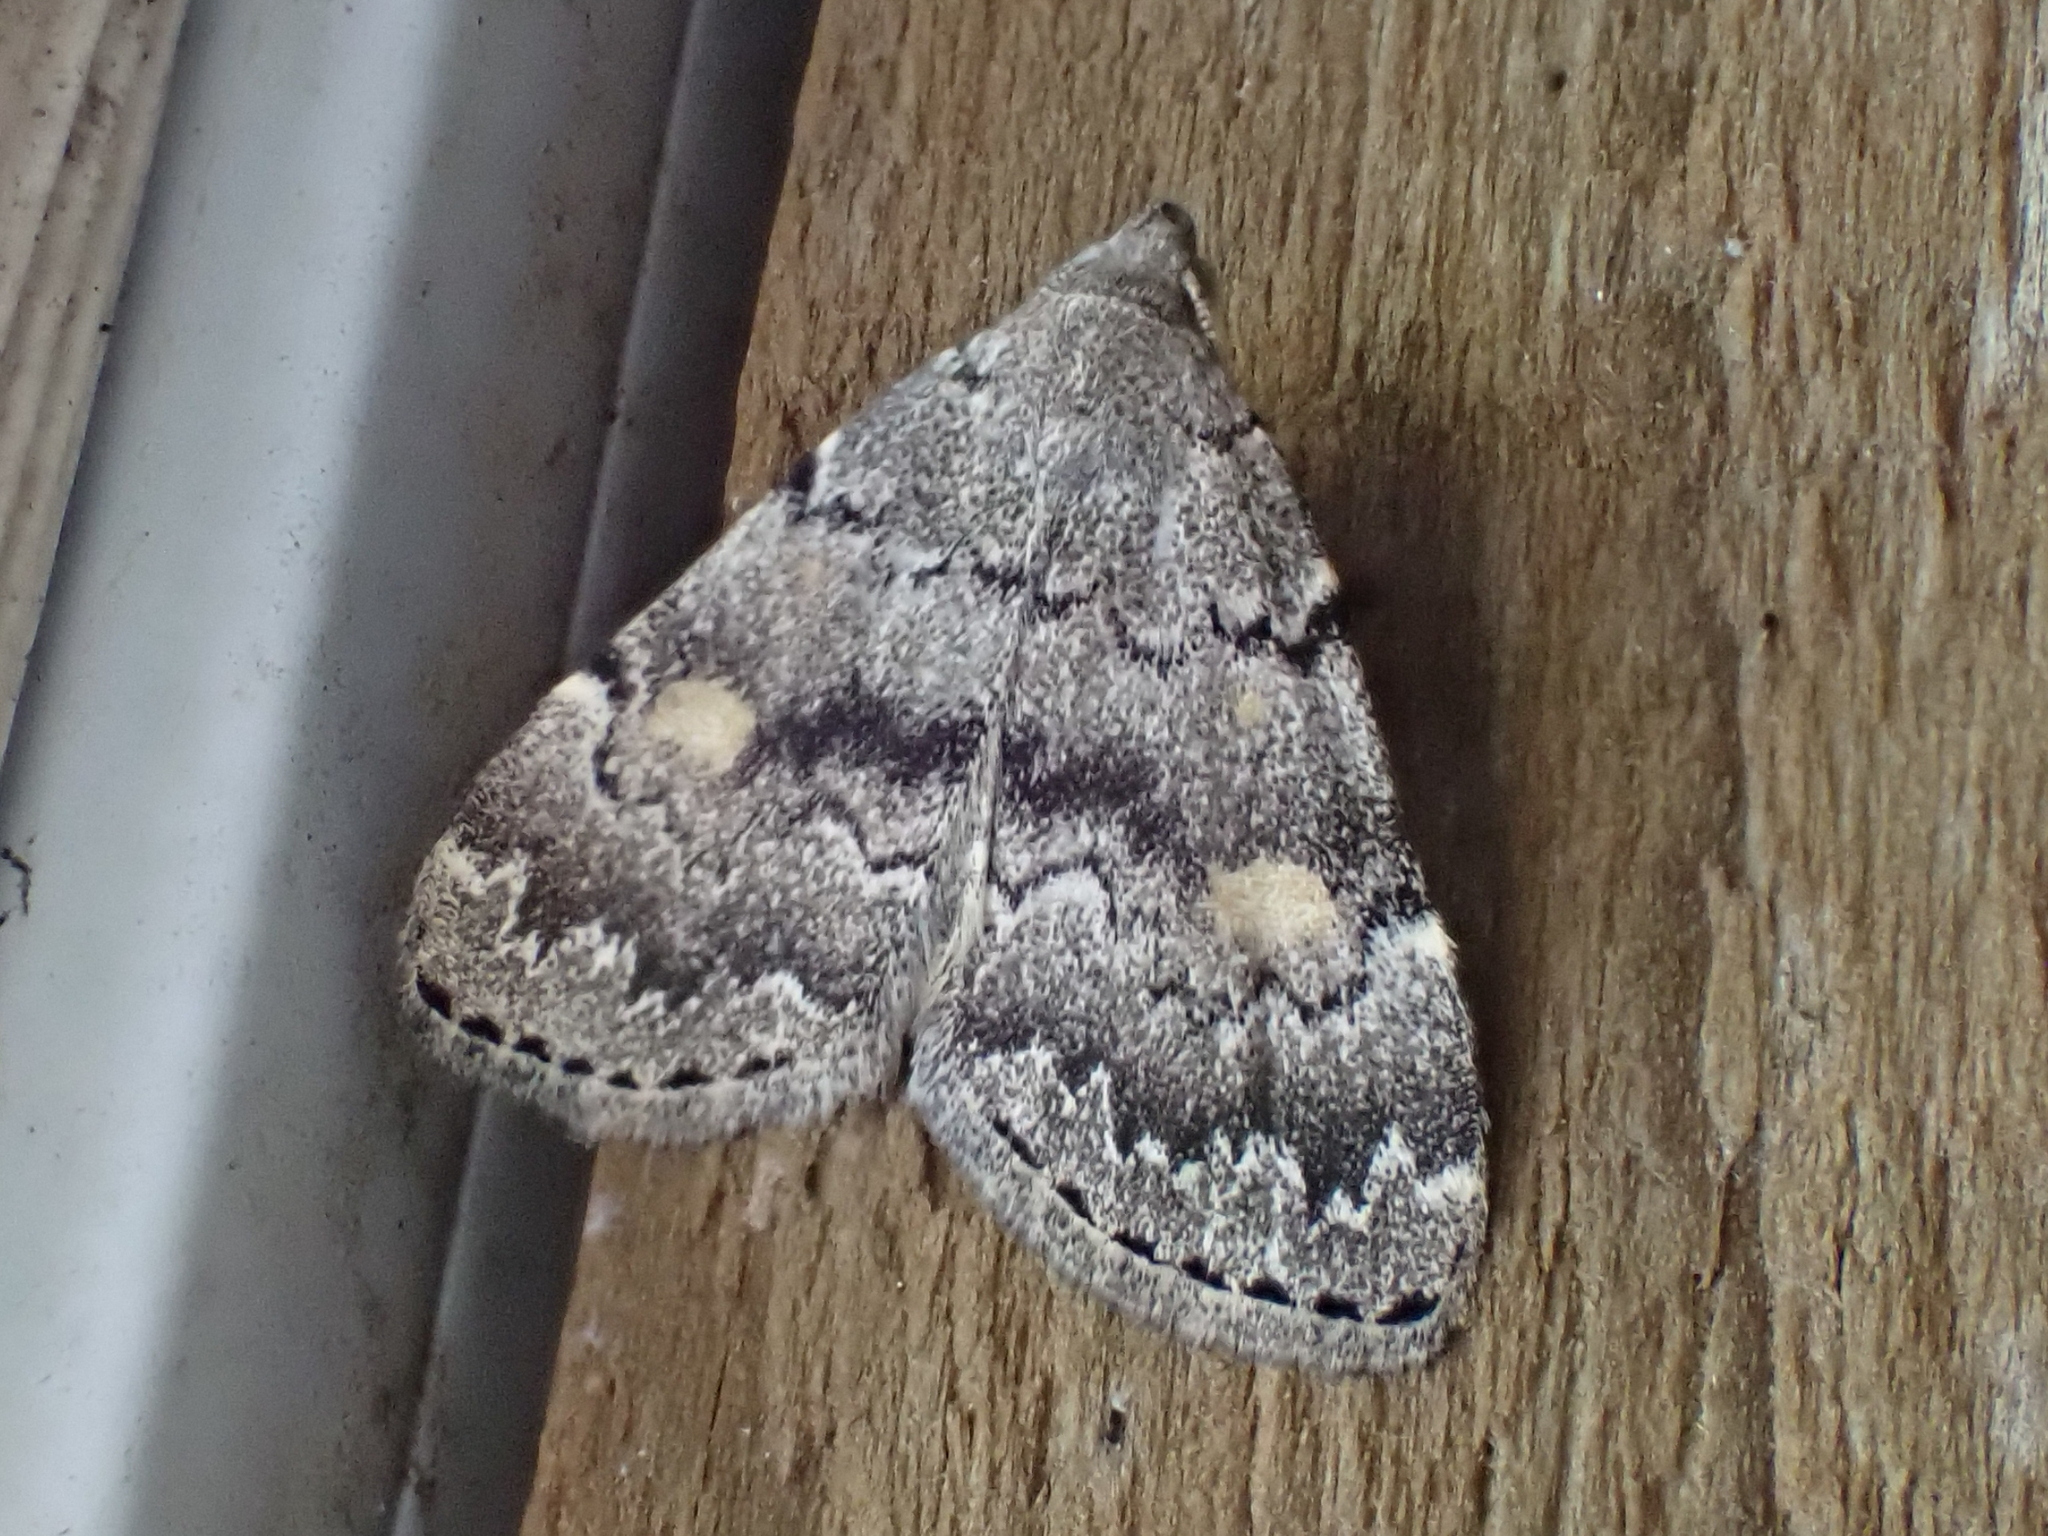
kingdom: Animalia
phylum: Arthropoda
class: Insecta
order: Lepidoptera
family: Erebidae
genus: Idia
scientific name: Idia aemula
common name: Common idia moth
